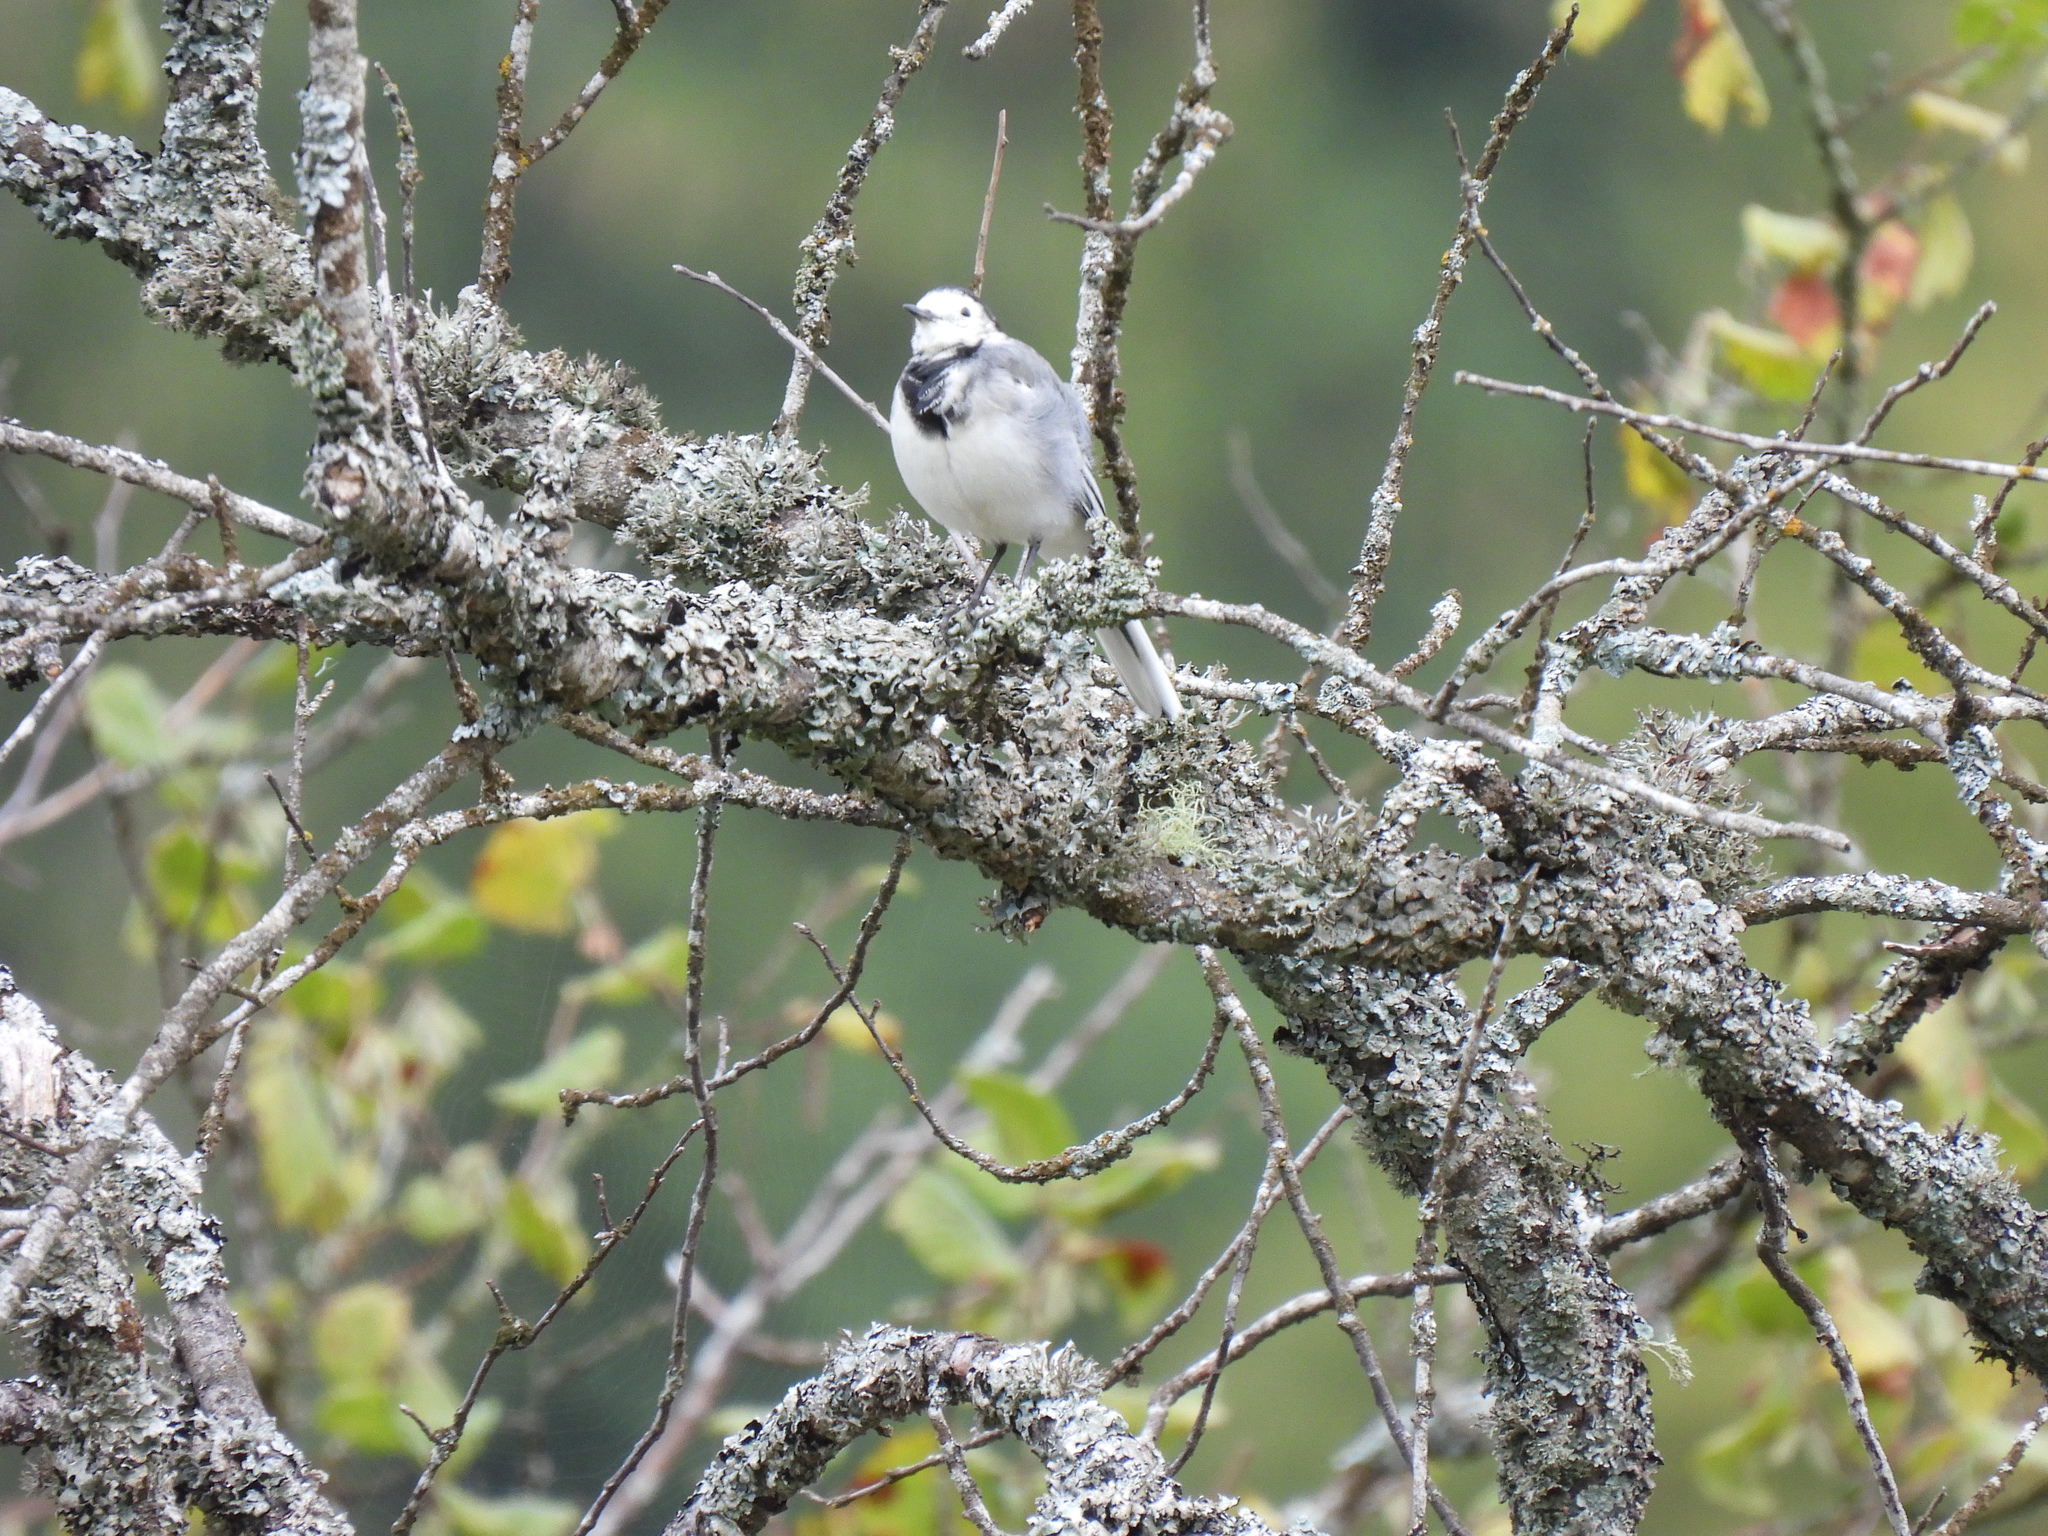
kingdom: Animalia
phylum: Chordata
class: Aves
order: Passeriformes
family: Motacillidae
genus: Motacilla
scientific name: Motacilla alba
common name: White wagtail
